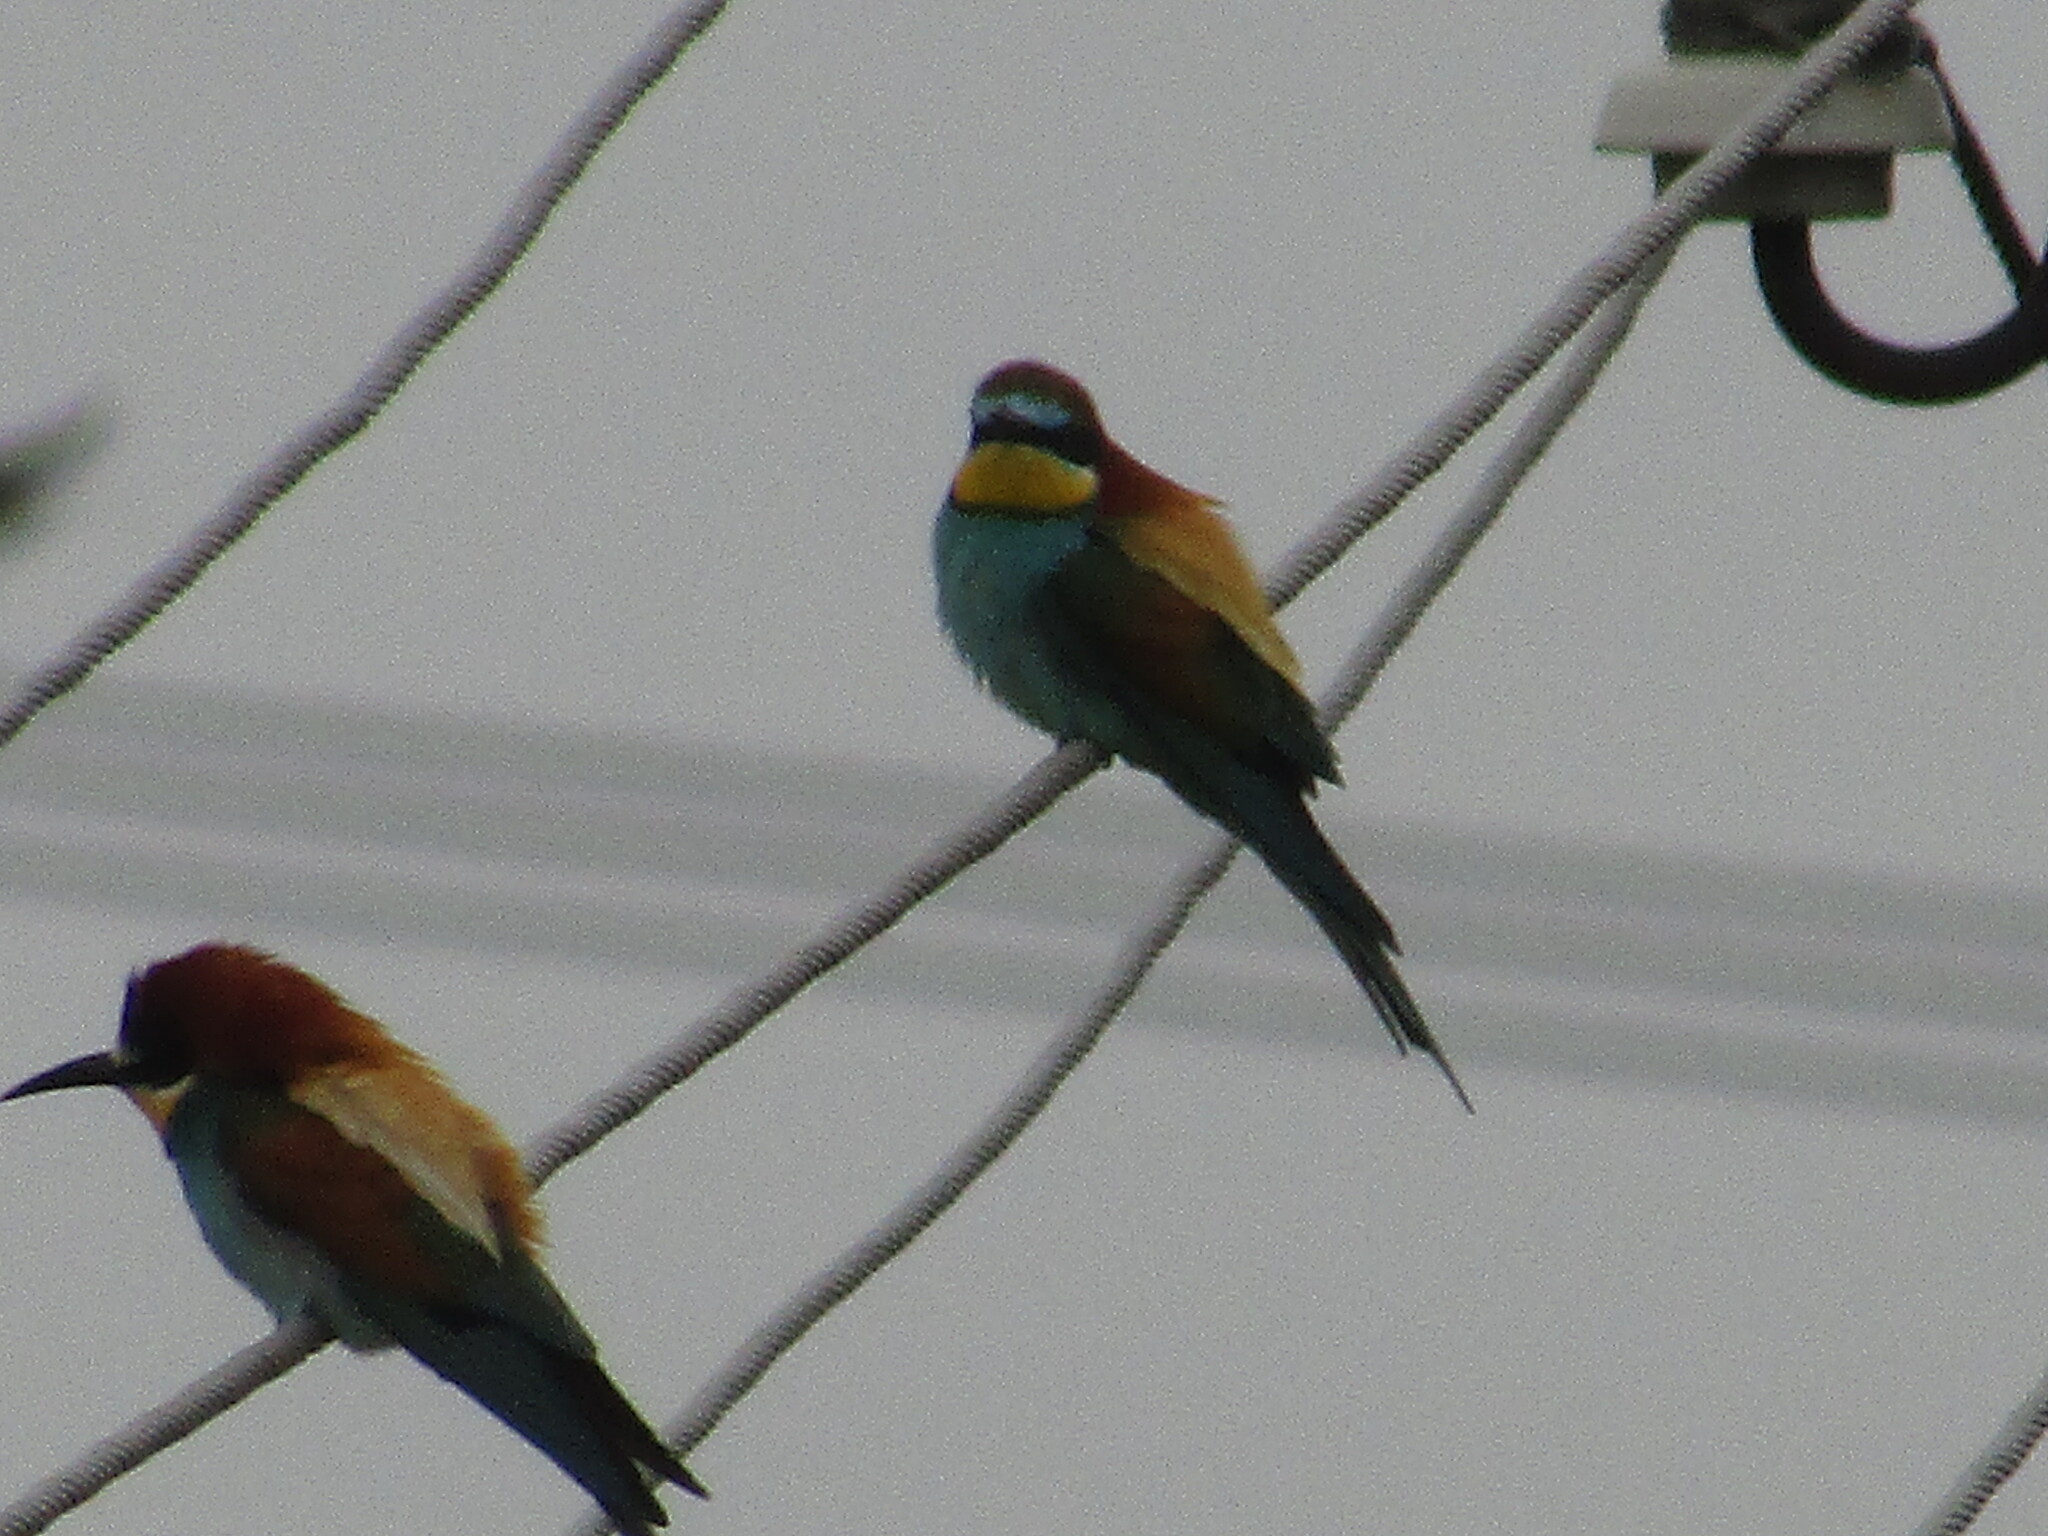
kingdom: Animalia
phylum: Chordata
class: Aves
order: Coraciiformes
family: Meropidae
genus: Merops
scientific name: Merops apiaster
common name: European bee-eater
